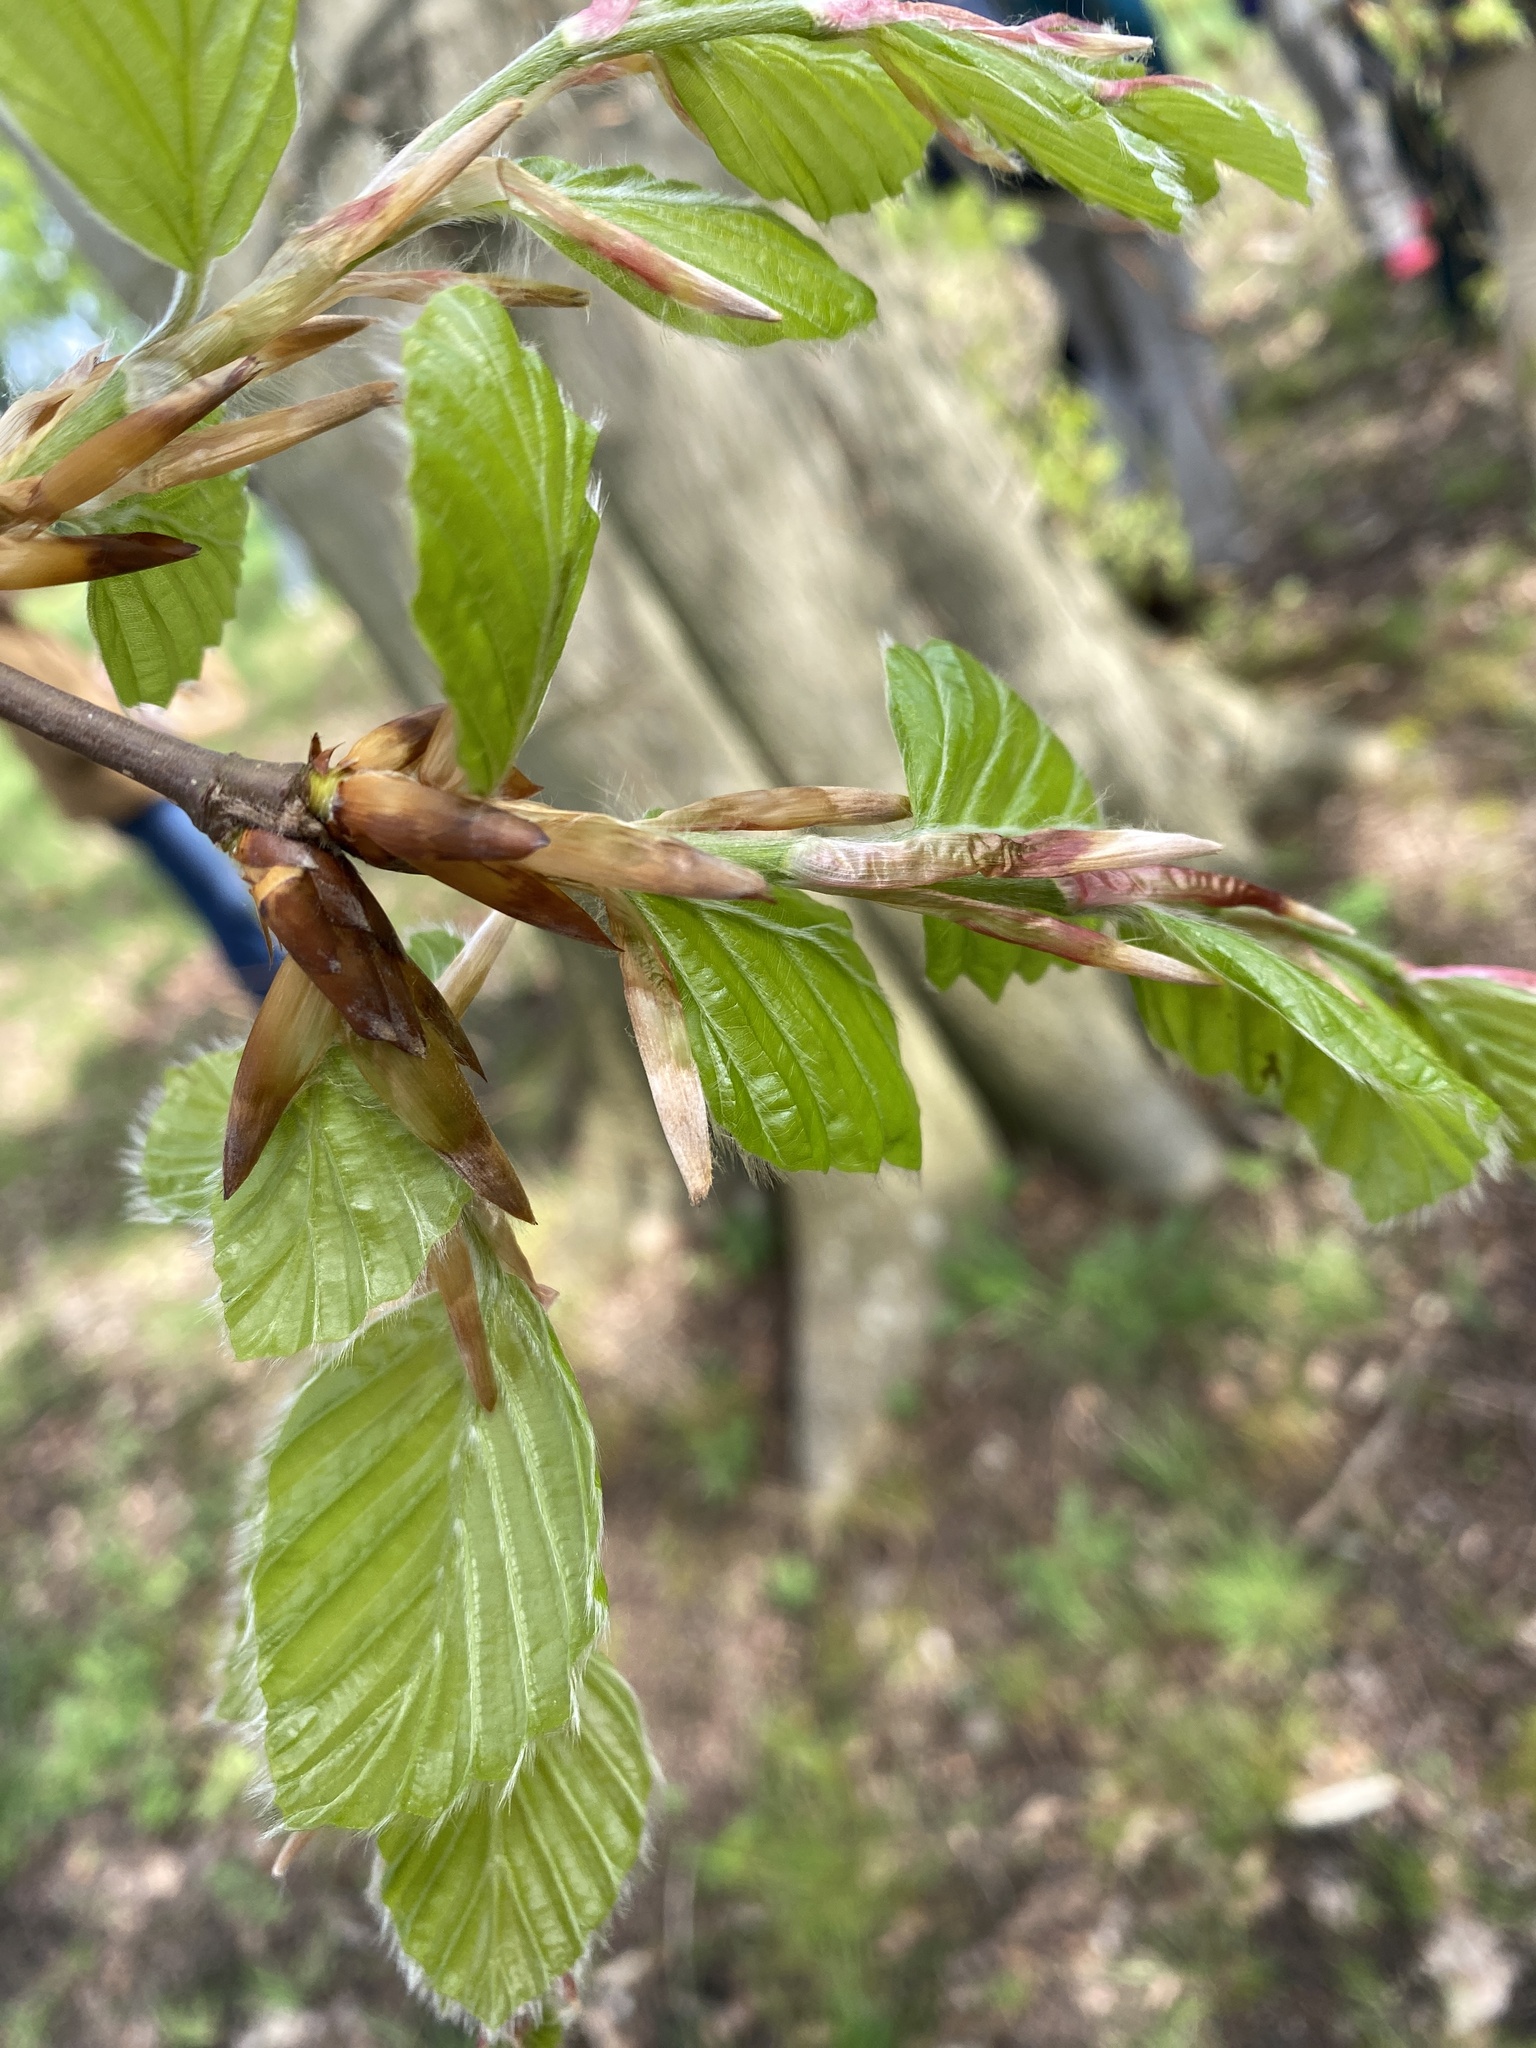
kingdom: Plantae
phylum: Tracheophyta
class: Magnoliopsida
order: Fagales
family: Fagaceae
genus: Fagus
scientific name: Fagus sylvatica
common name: Beech
